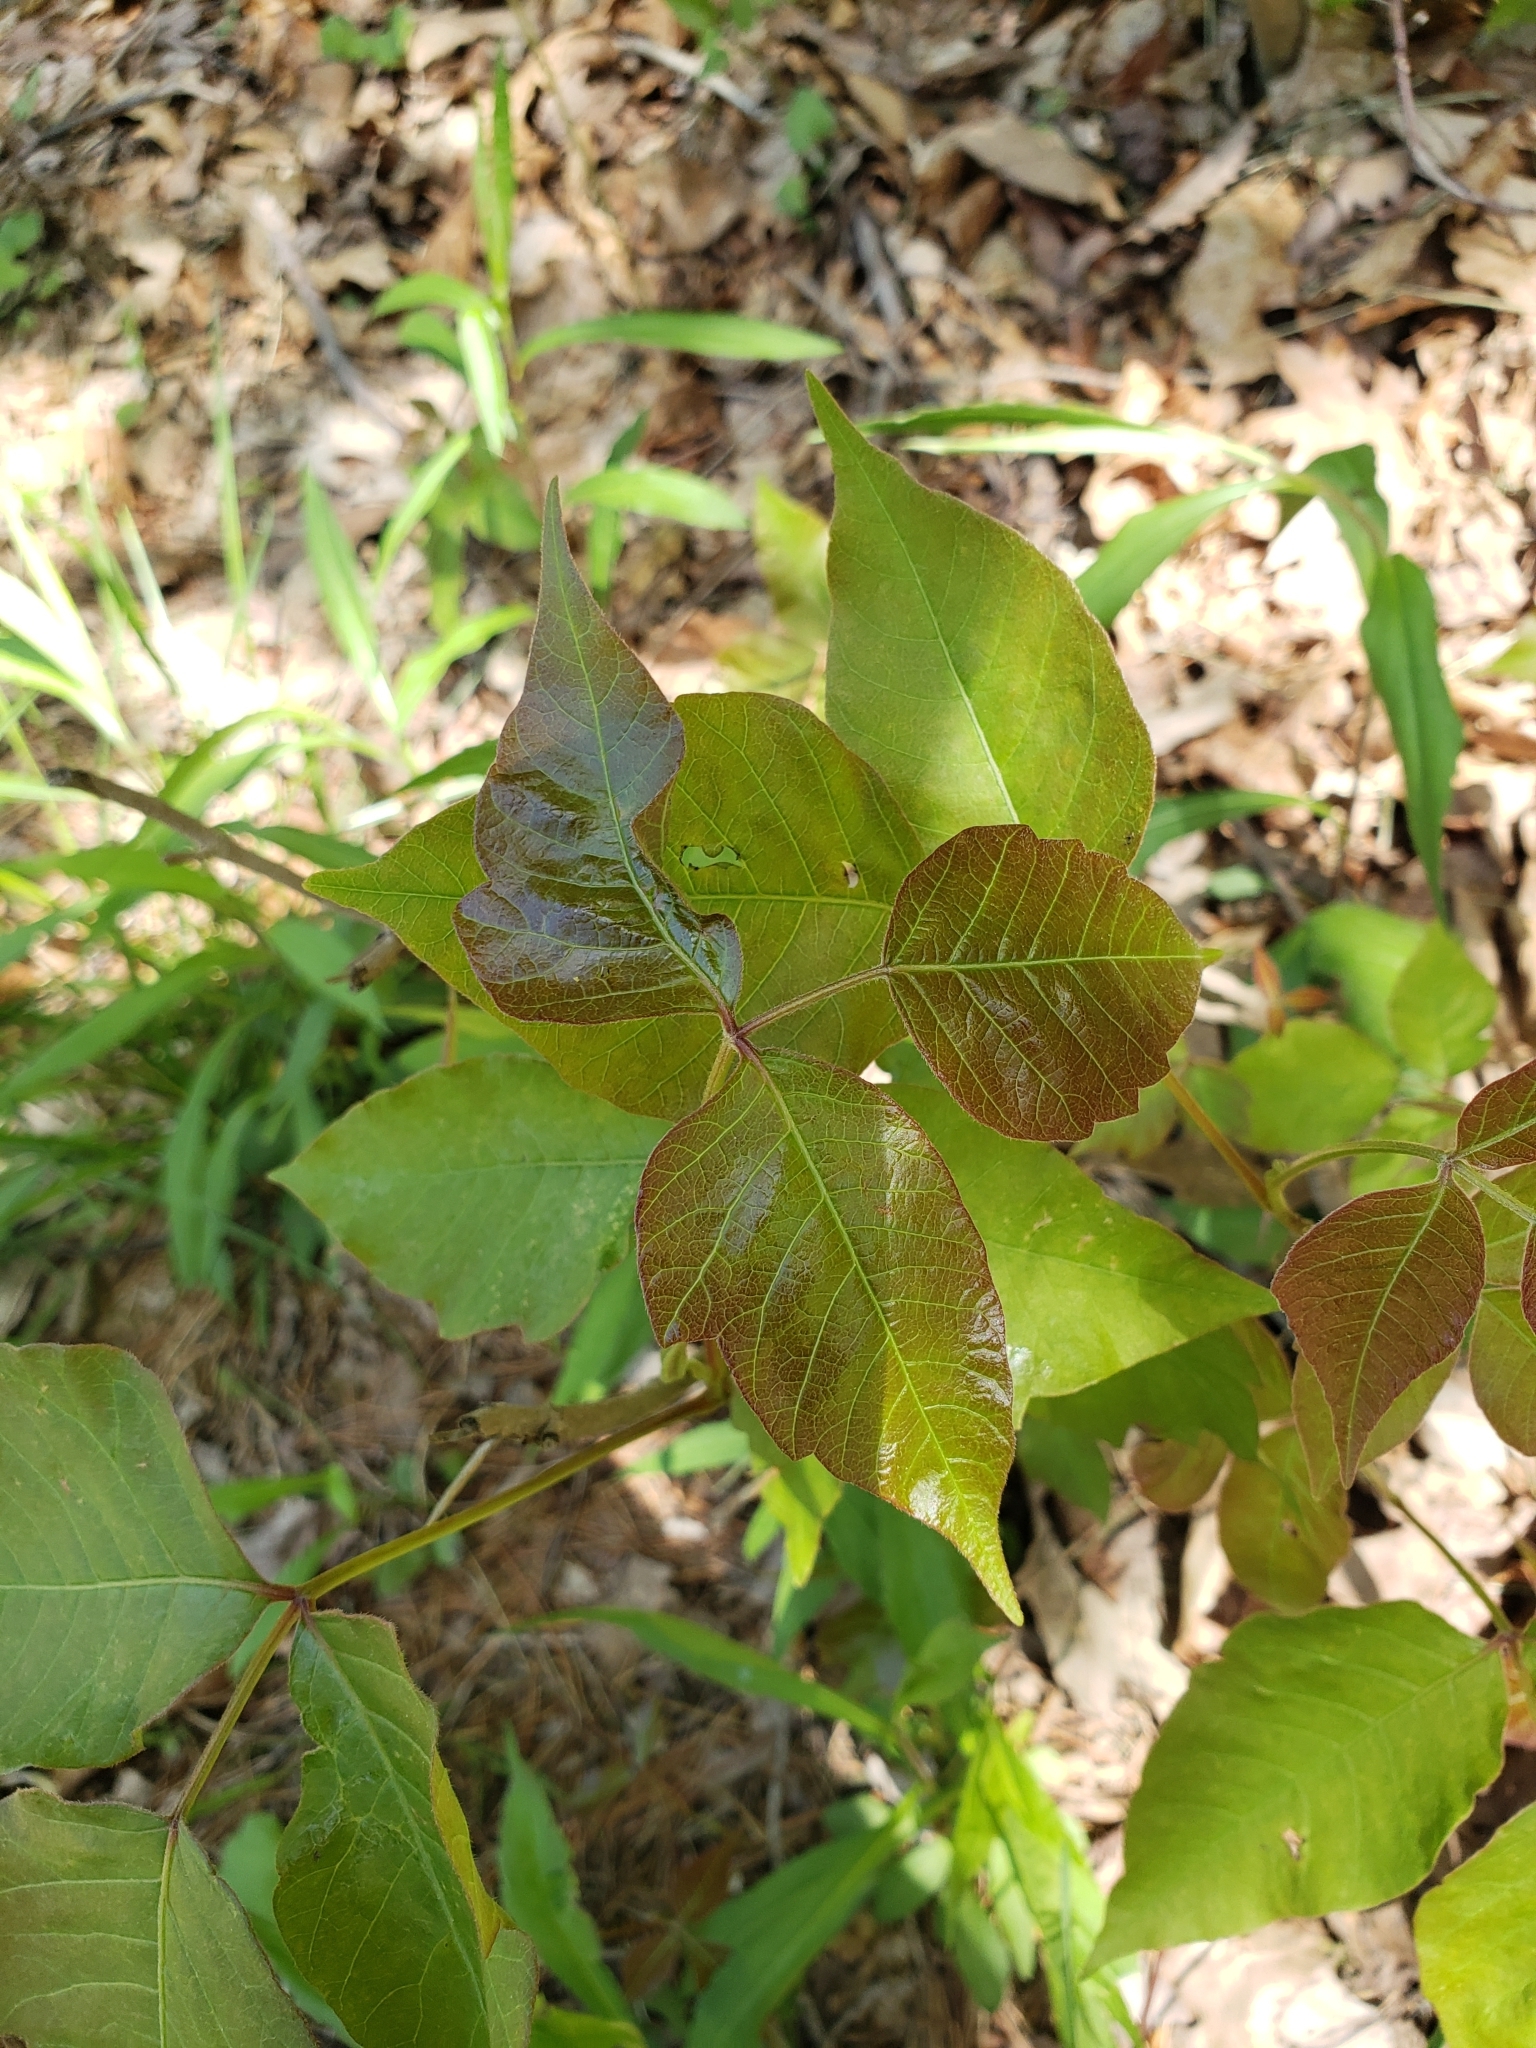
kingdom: Plantae
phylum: Tracheophyta
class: Magnoliopsida
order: Sapindales
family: Anacardiaceae
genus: Toxicodendron
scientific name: Toxicodendron radicans
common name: Poison ivy
